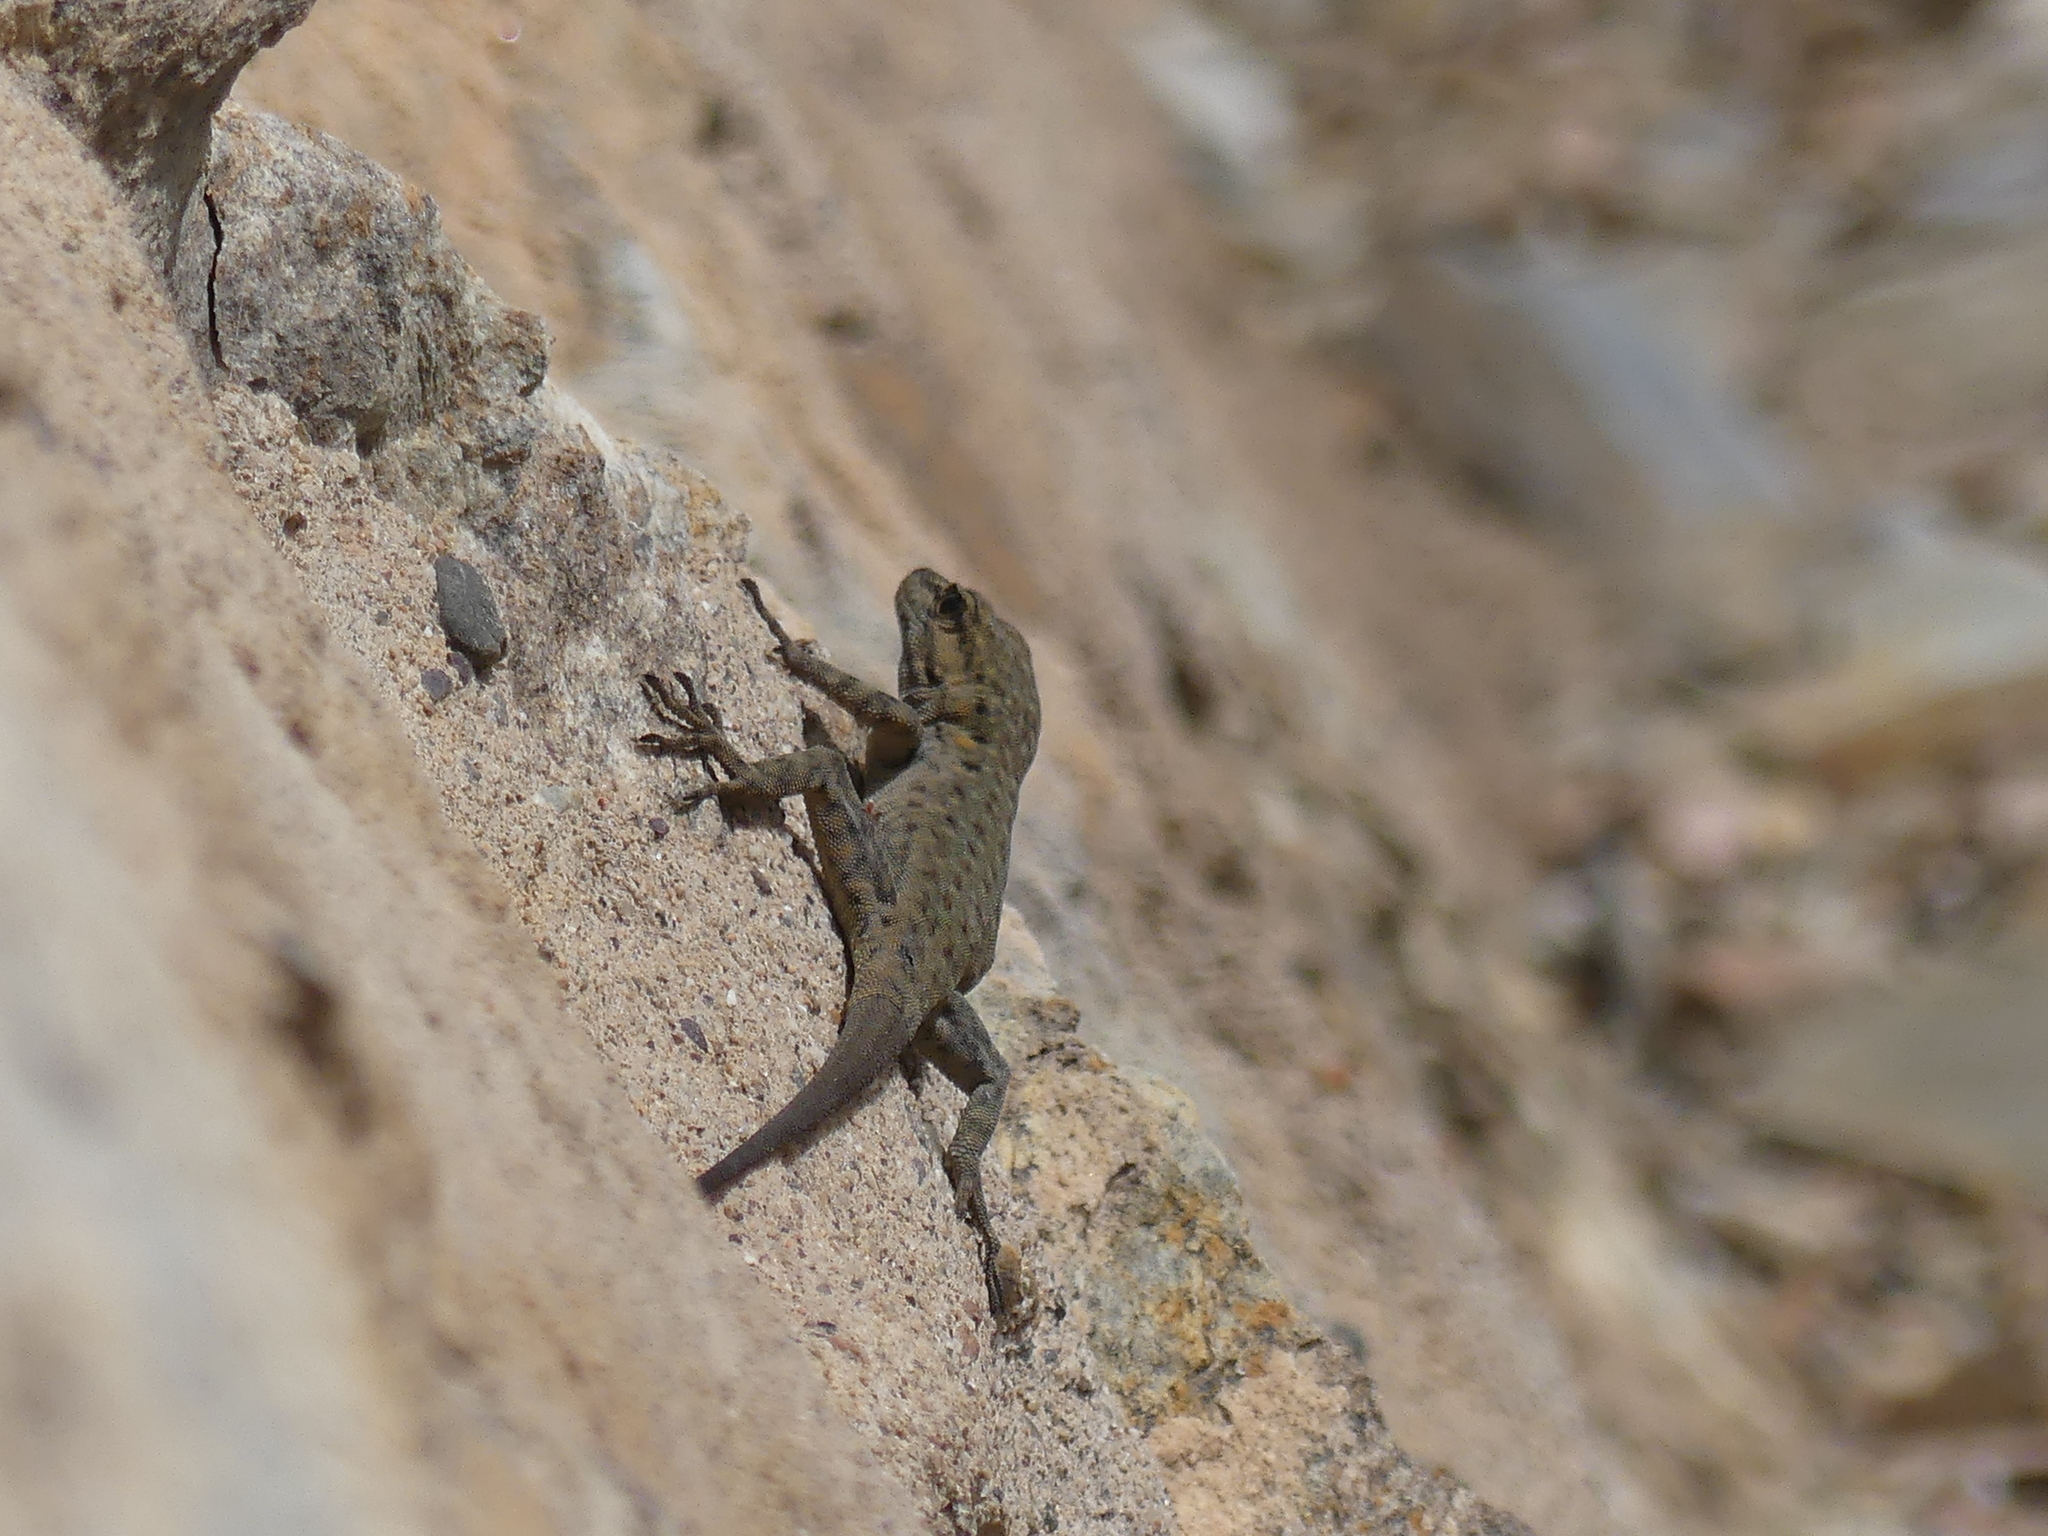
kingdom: Animalia
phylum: Chordata
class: Squamata
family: Sphaerodactylidae
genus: Quedenfeldtia
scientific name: Quedenfeldtia moerens
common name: Atlas day gecko
